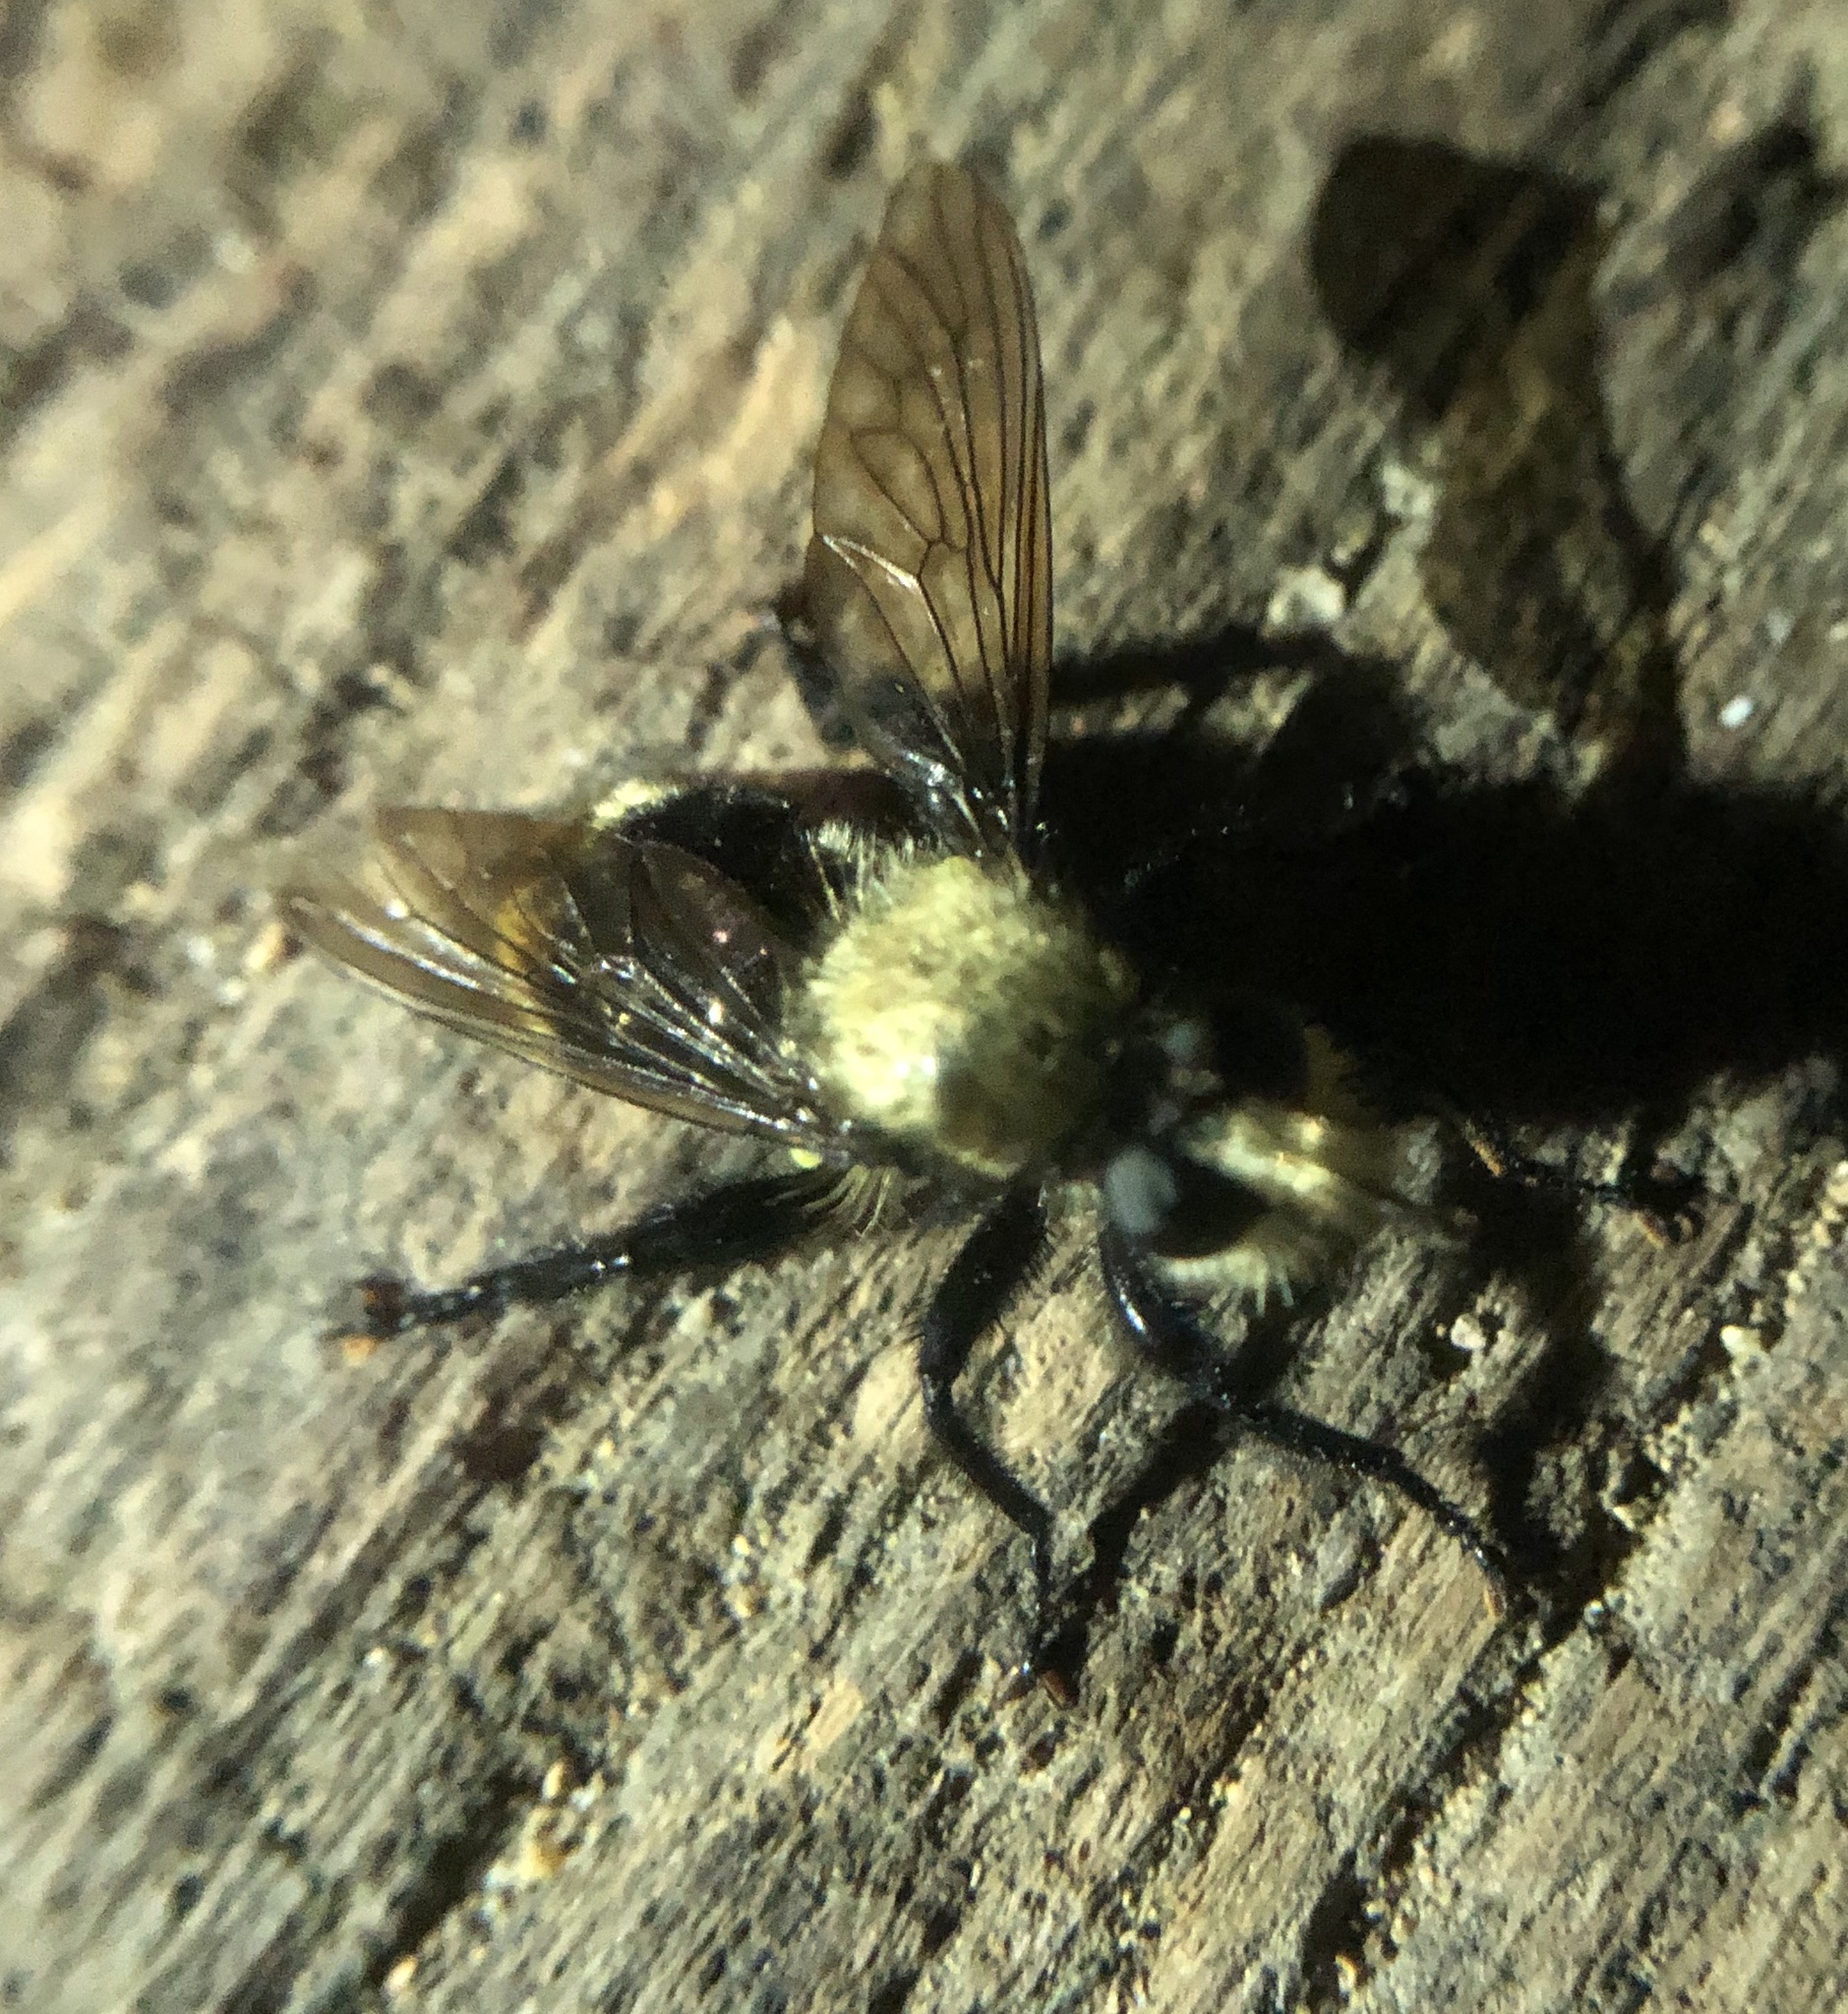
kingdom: Animalia
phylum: Arthropoda
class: Insecta
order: Diptera
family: Asilidae
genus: Laphria
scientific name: Laphria divisor
